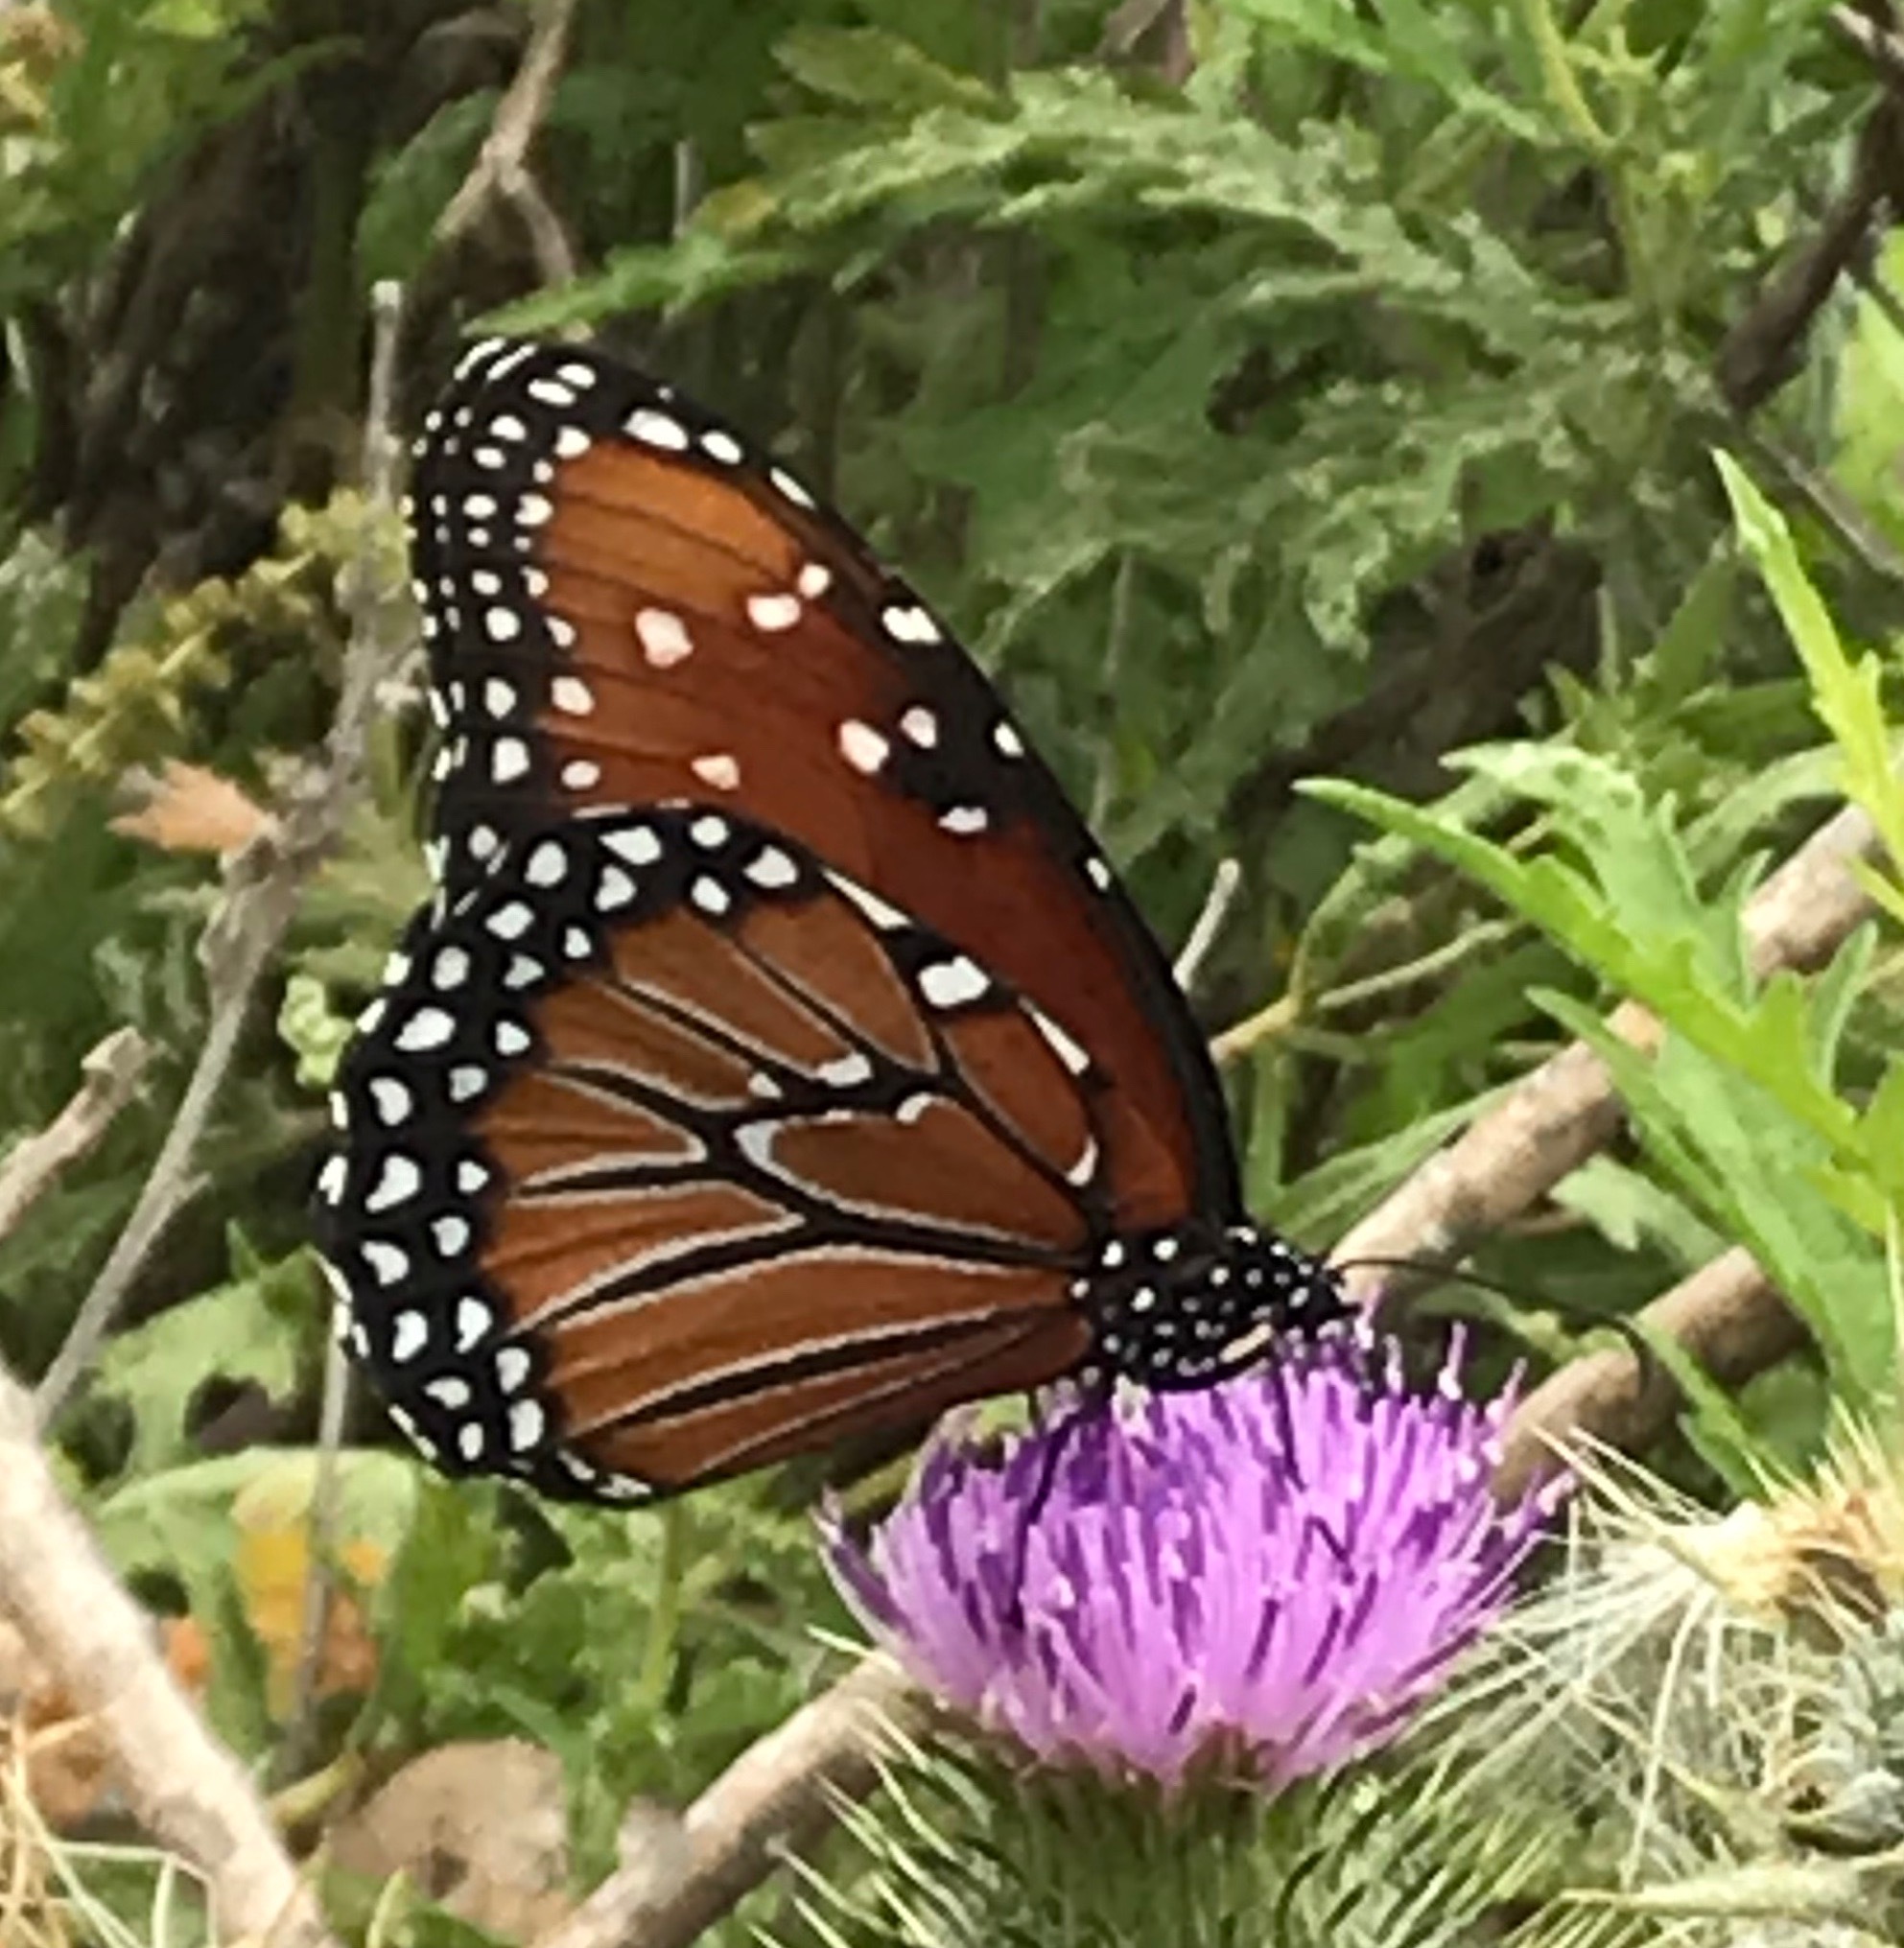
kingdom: Animalia
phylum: Arthropoda
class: Insecta
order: Lepidoptera
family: Nymphalidae
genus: Danaus
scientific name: Danaus gilippus
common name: Queen
